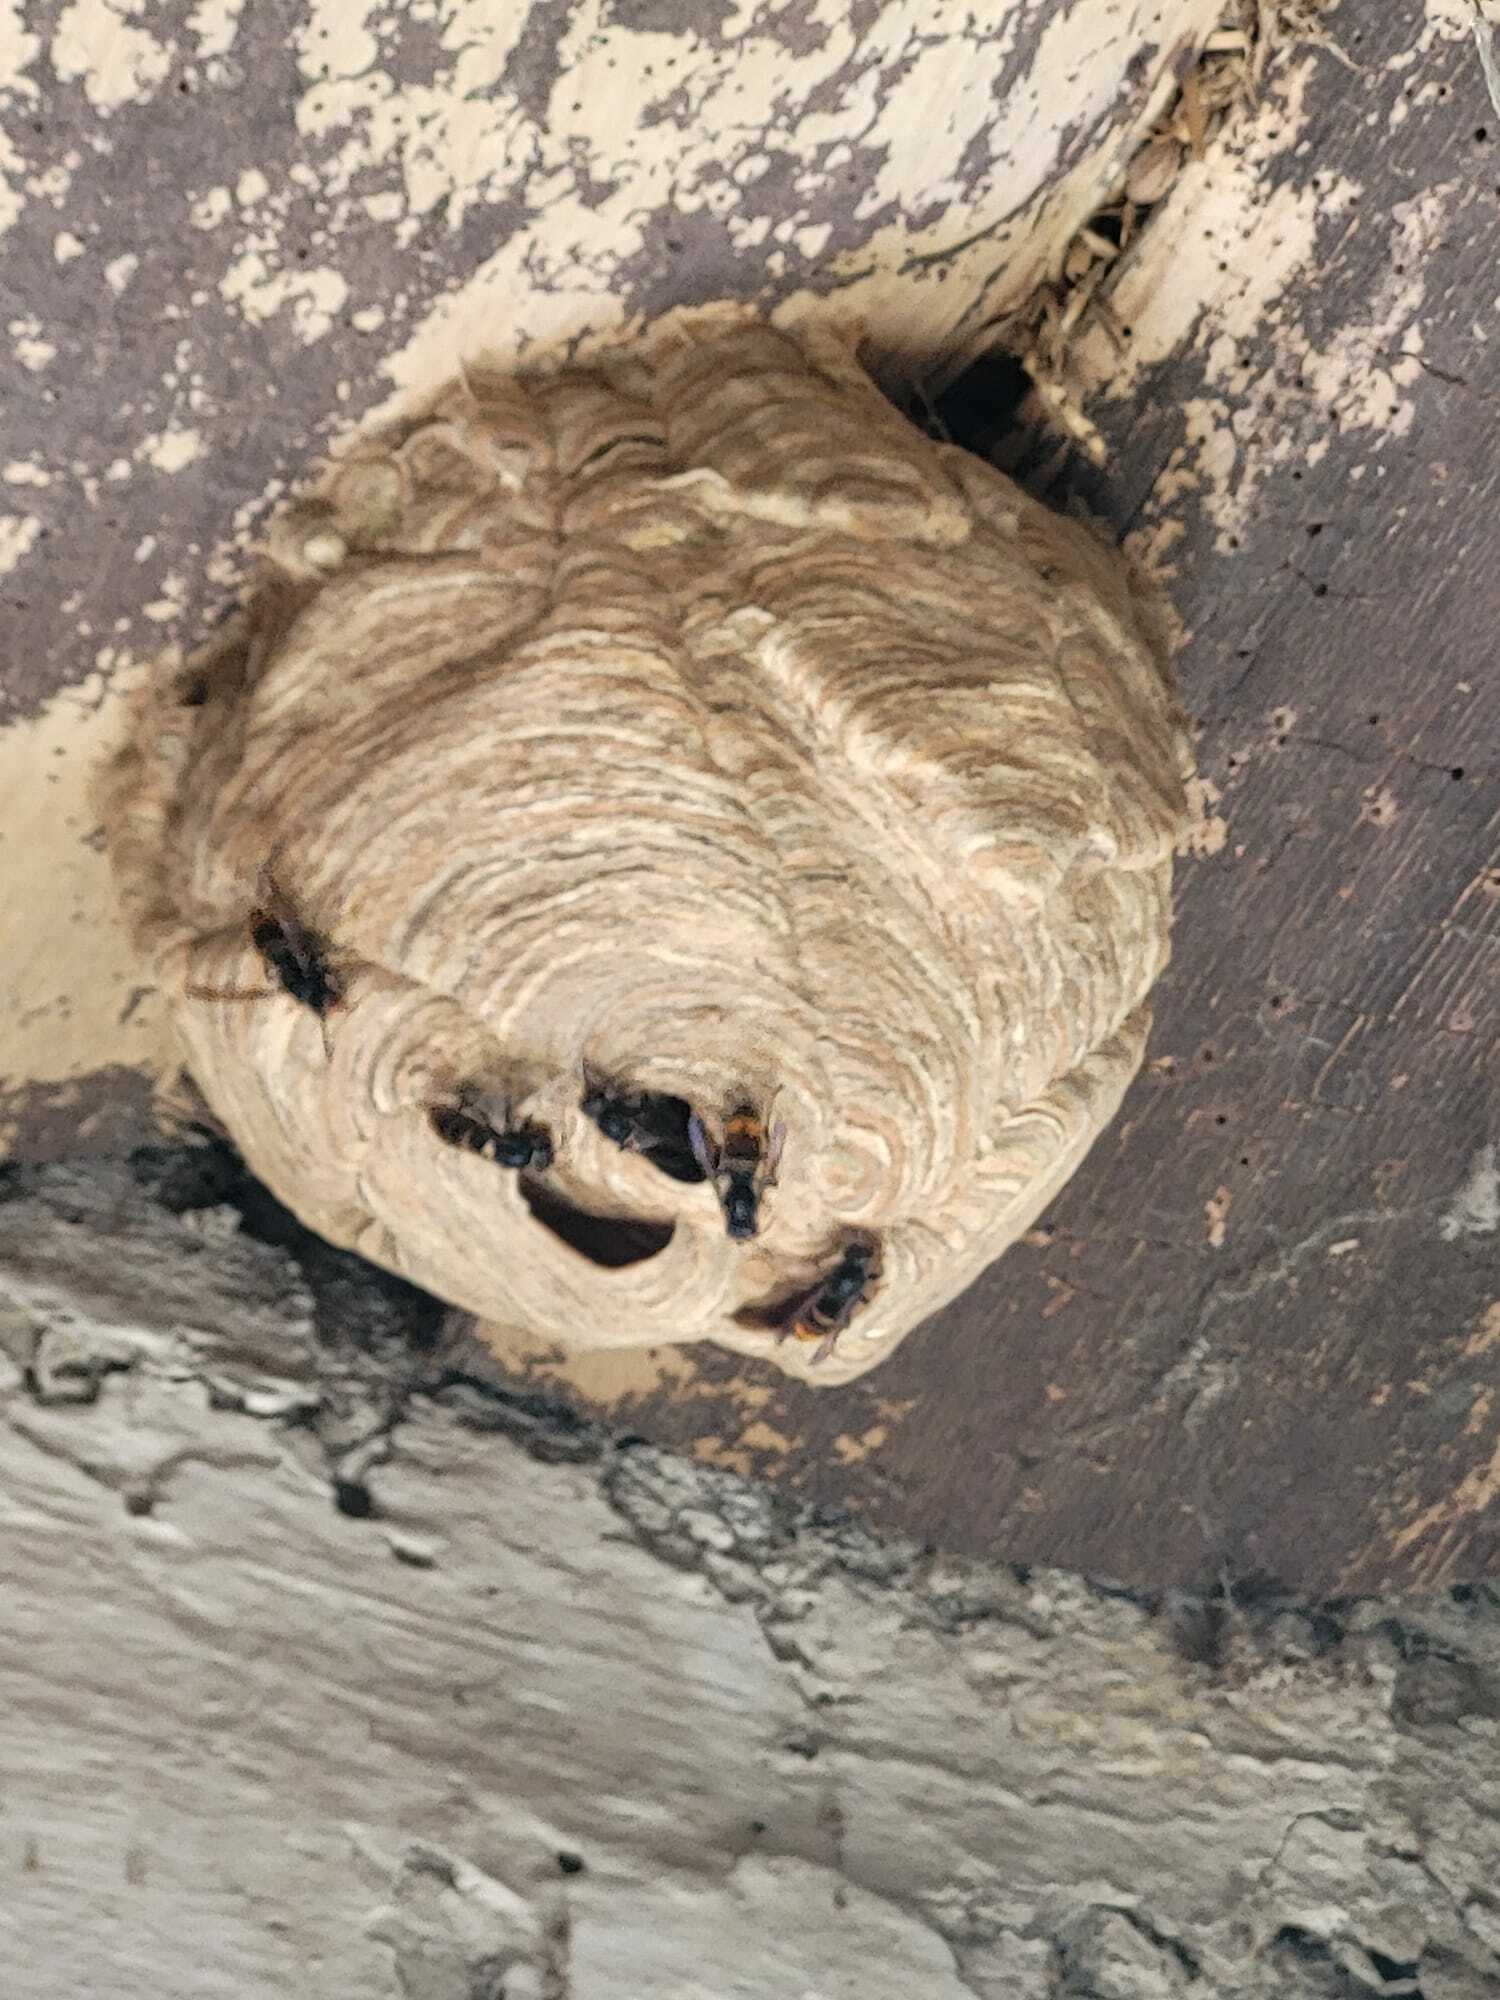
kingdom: Animalia
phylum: Arthropoda
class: Insecta
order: Hymenoptera
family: Vespidae
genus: Vespa
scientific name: Vespa velutina
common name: Asian hornet
